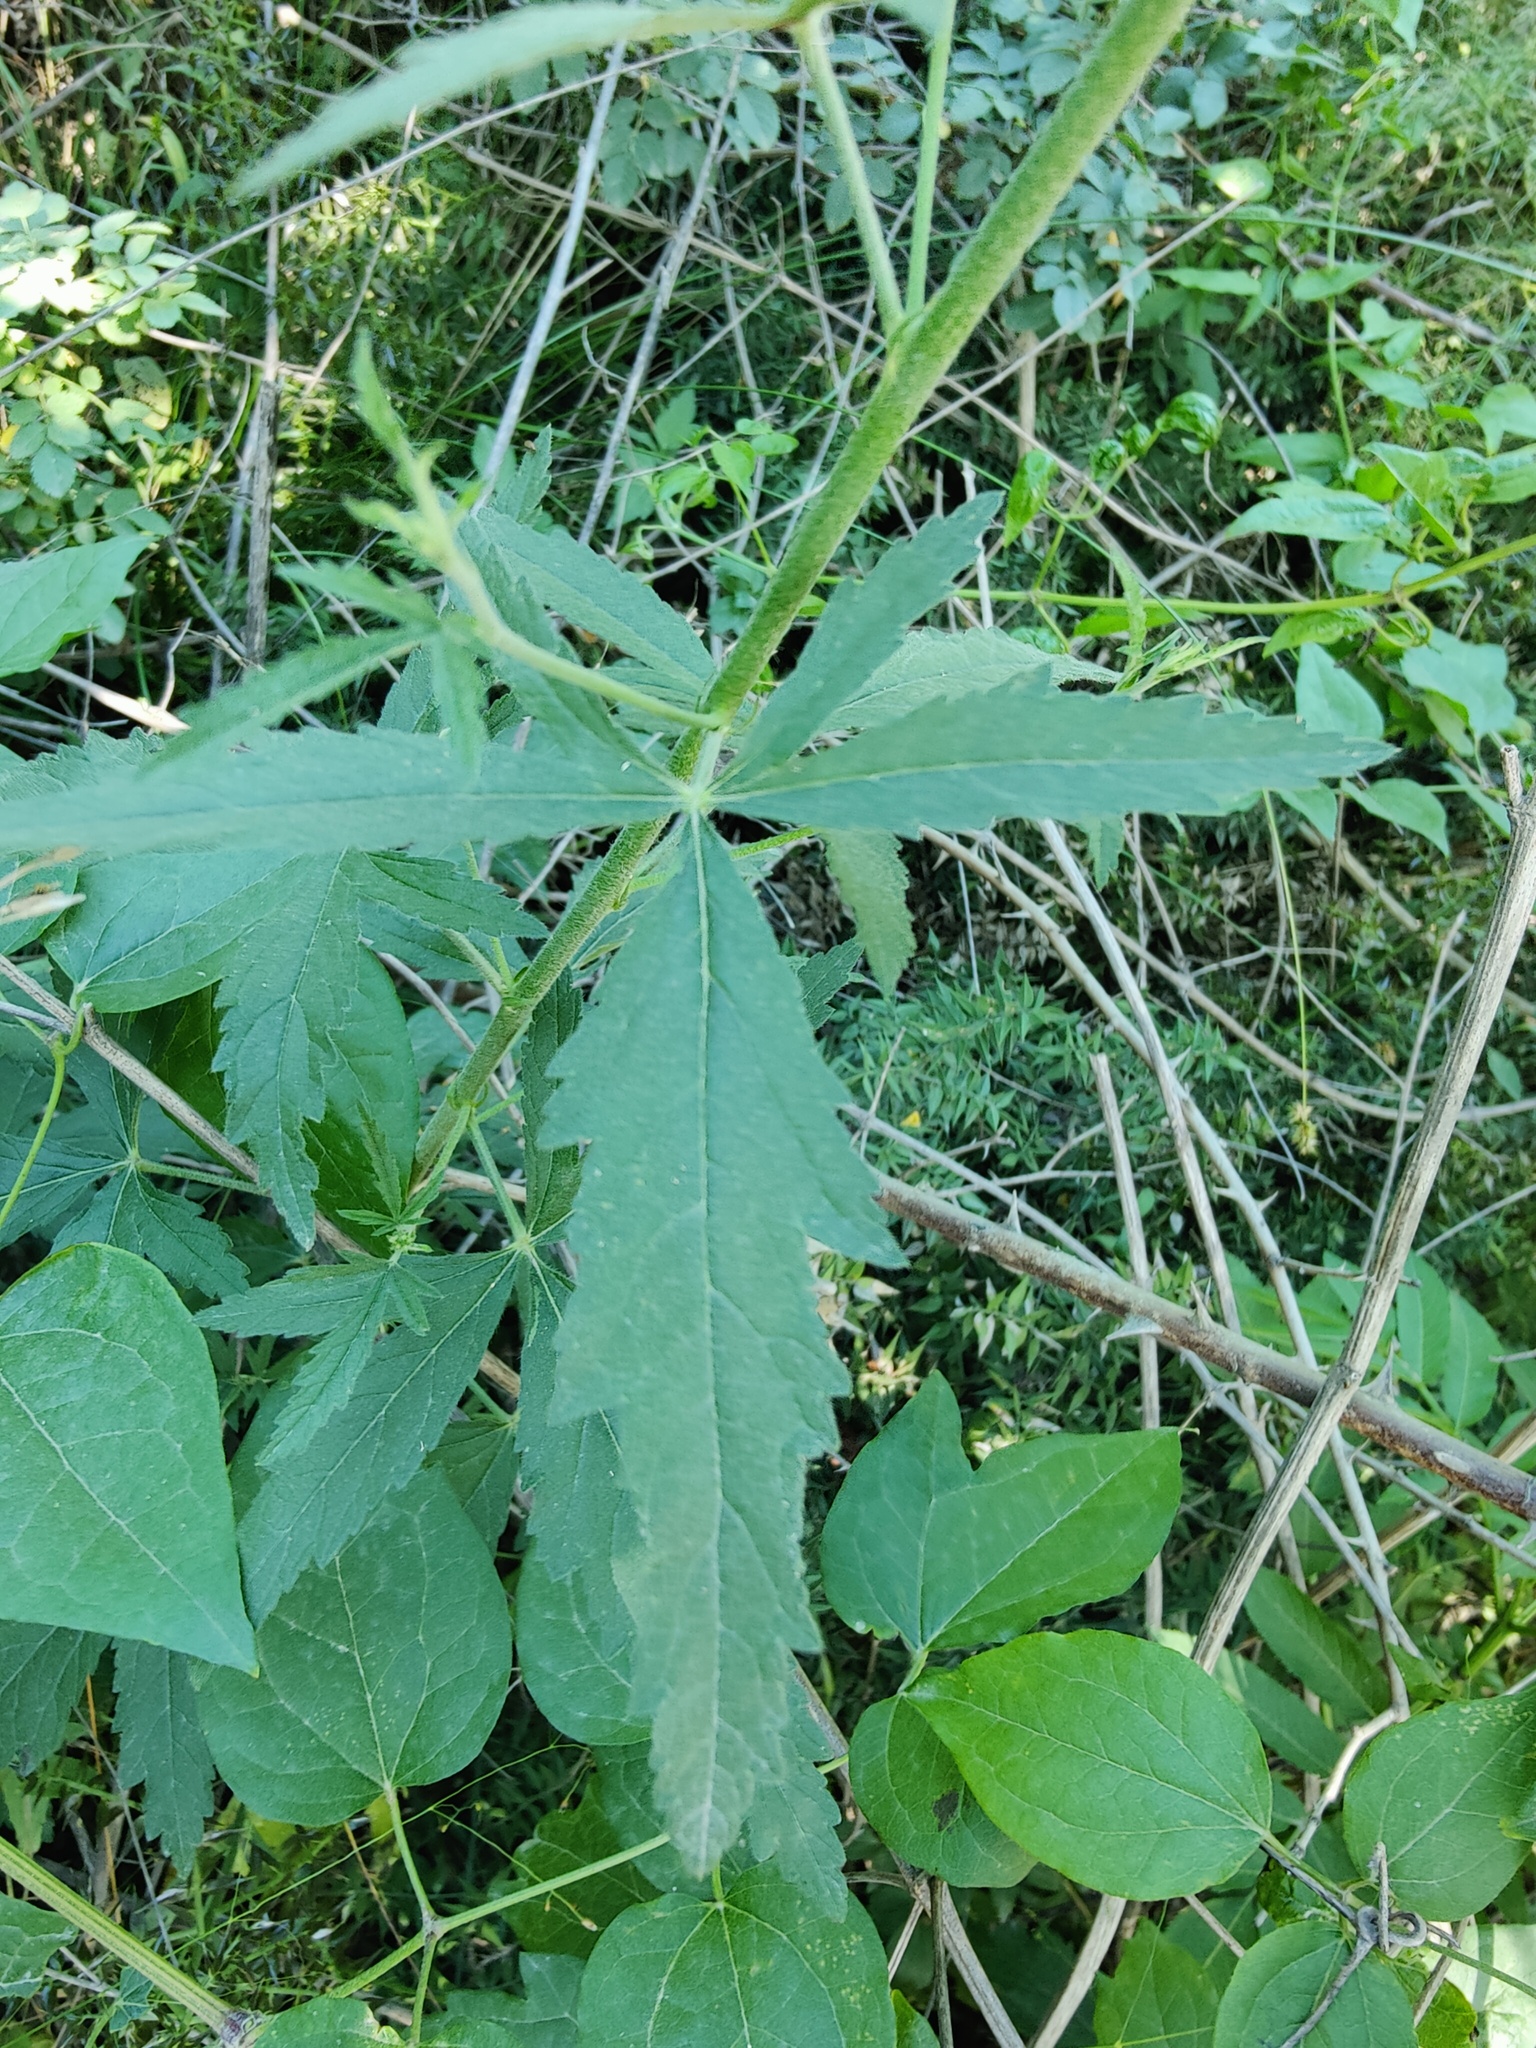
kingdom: Plantae
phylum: Tracheophyta
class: Magnoliopsida
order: Malvales
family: Malvaceae
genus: Althaea
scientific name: Althaea cannabina
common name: Palm-leaf marshmallow
